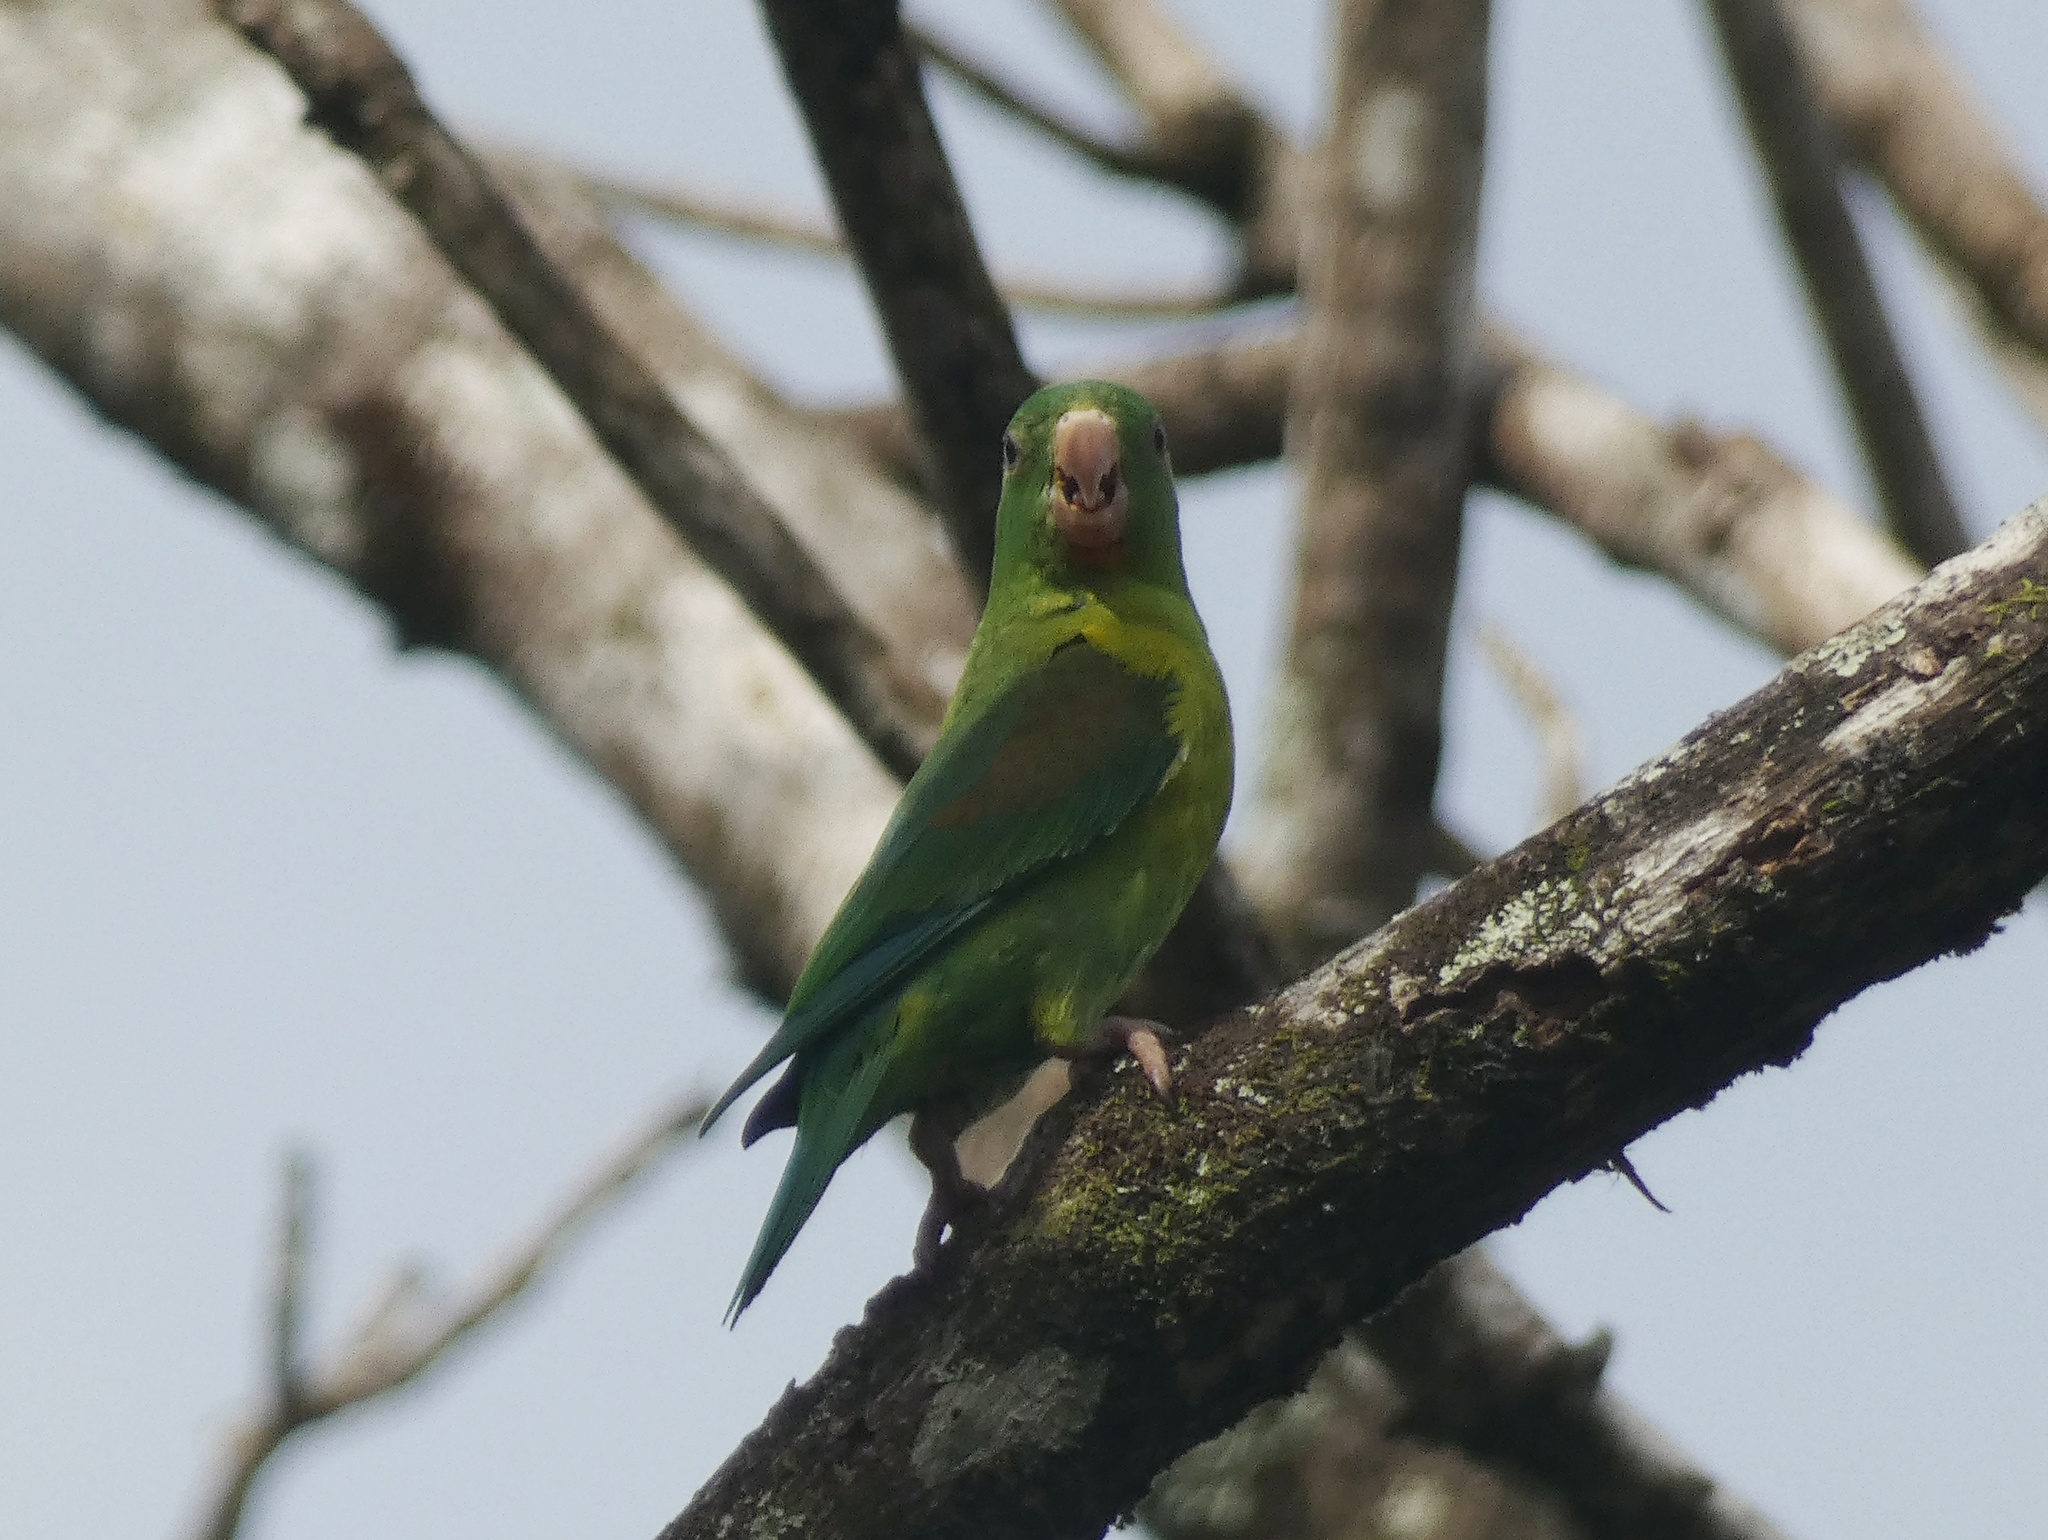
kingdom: Animalia
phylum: Chordata
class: Aves
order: Psittaciformes
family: Psittacidae
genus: Brotogeris
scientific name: Brotogeris jugularis
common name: Orange-chinned parakeet
